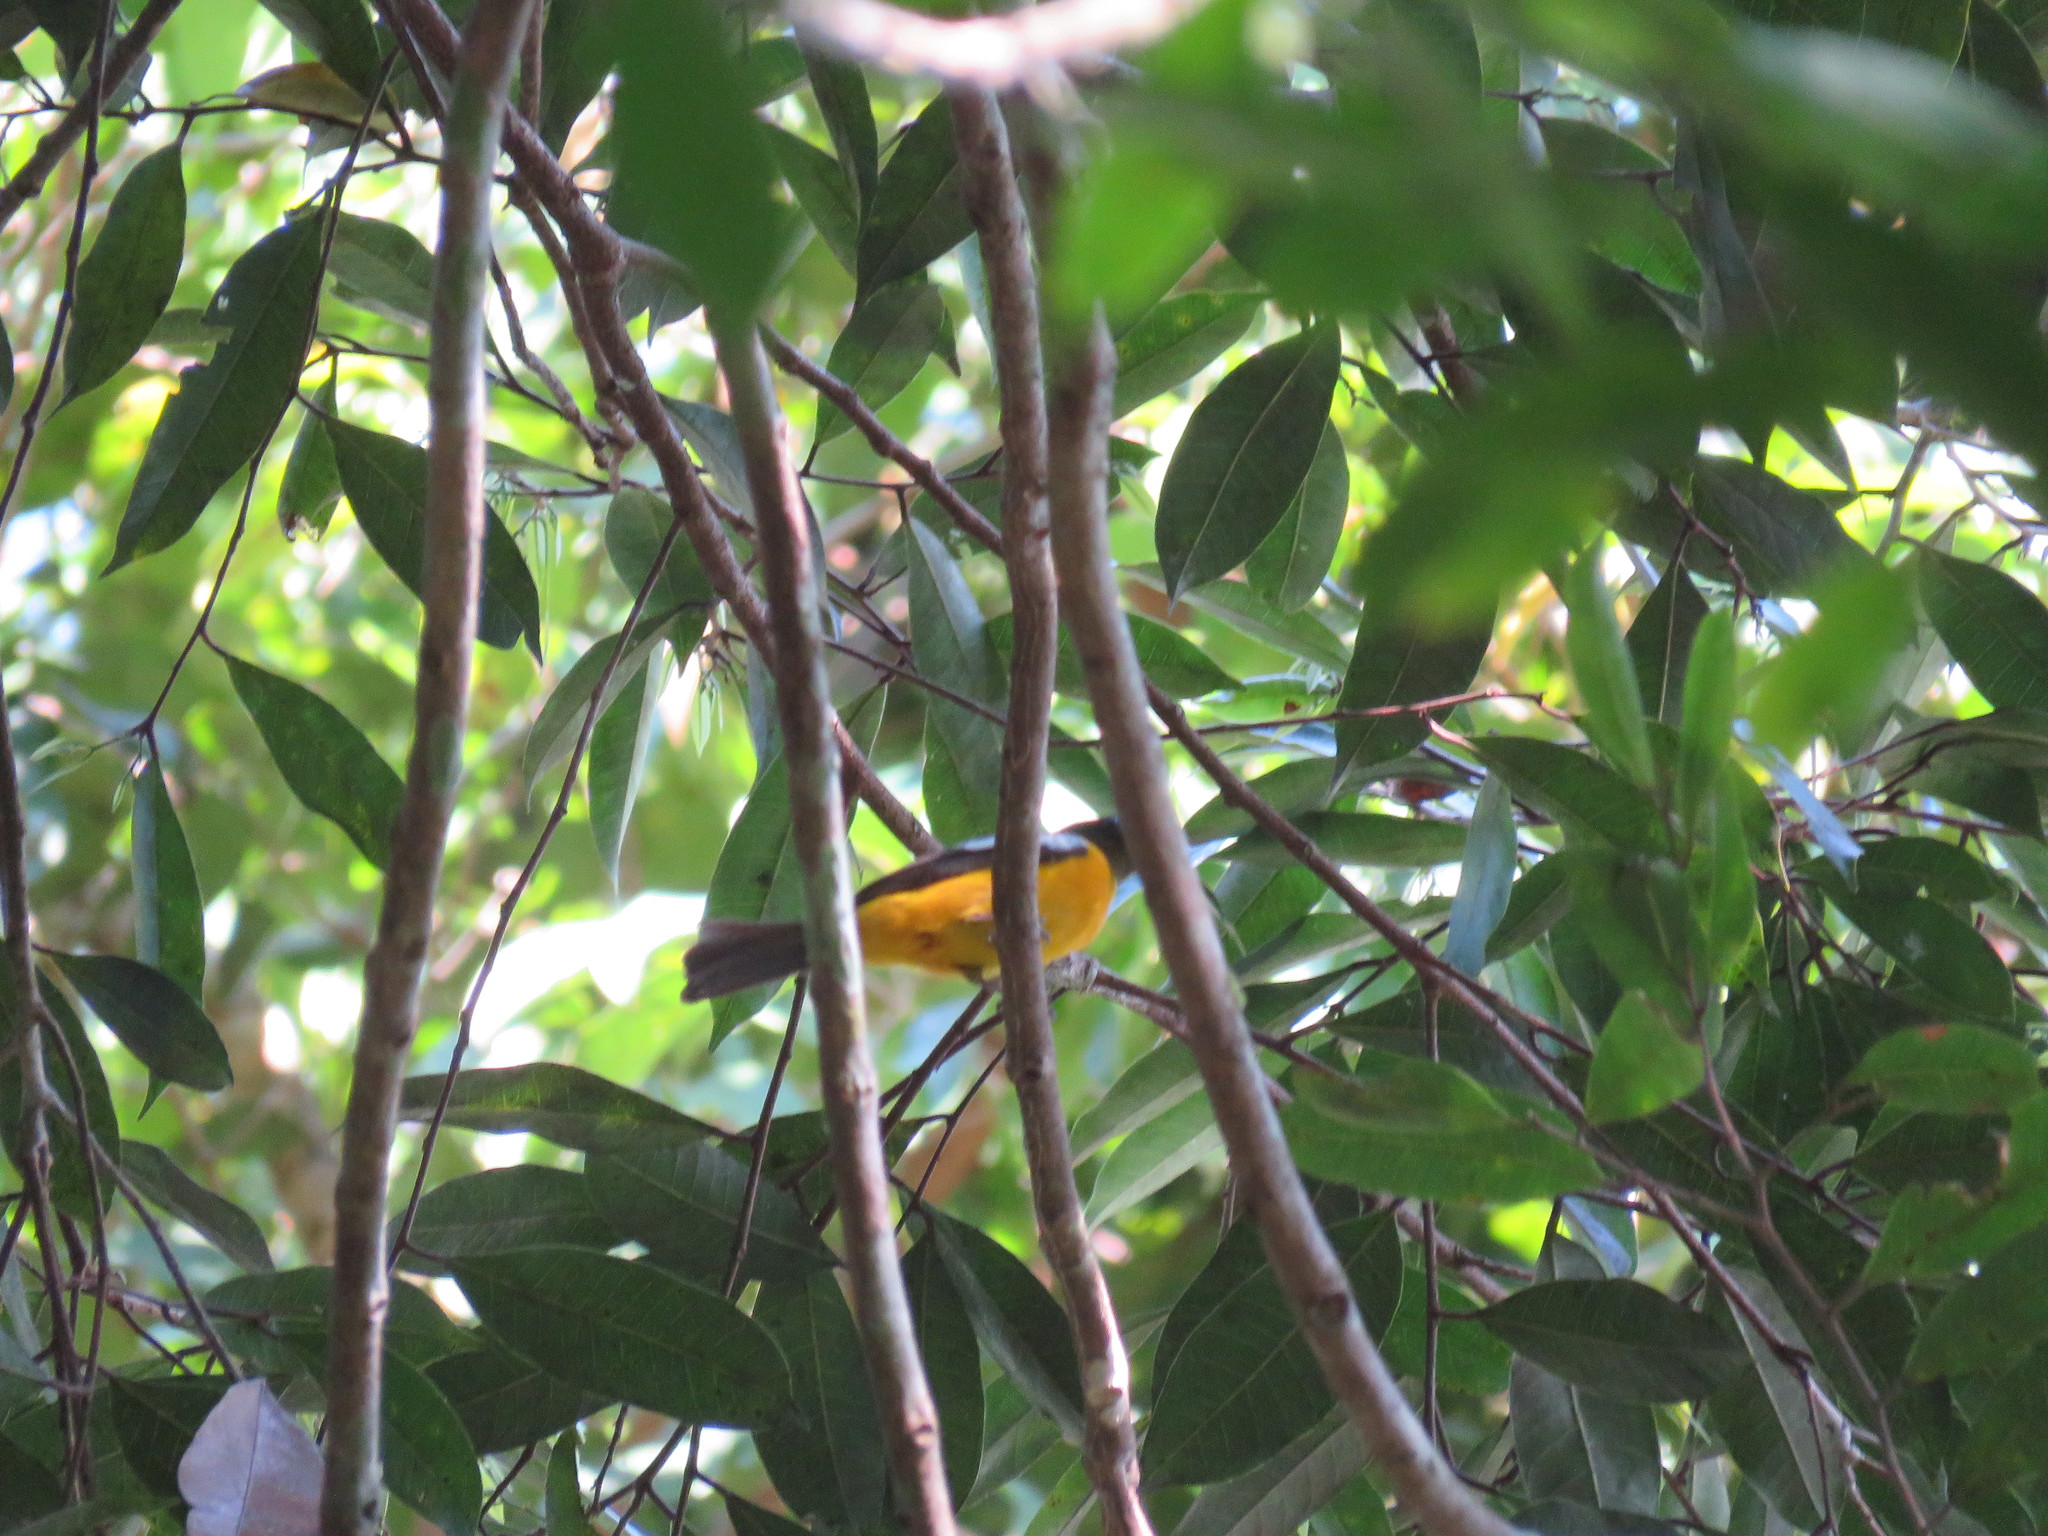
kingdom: Animalia
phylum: Chordata
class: Aves
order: Passeriformes
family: Thraupidae
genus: Lanio
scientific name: Lanio versicolor
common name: White-winged shrike-tanager
